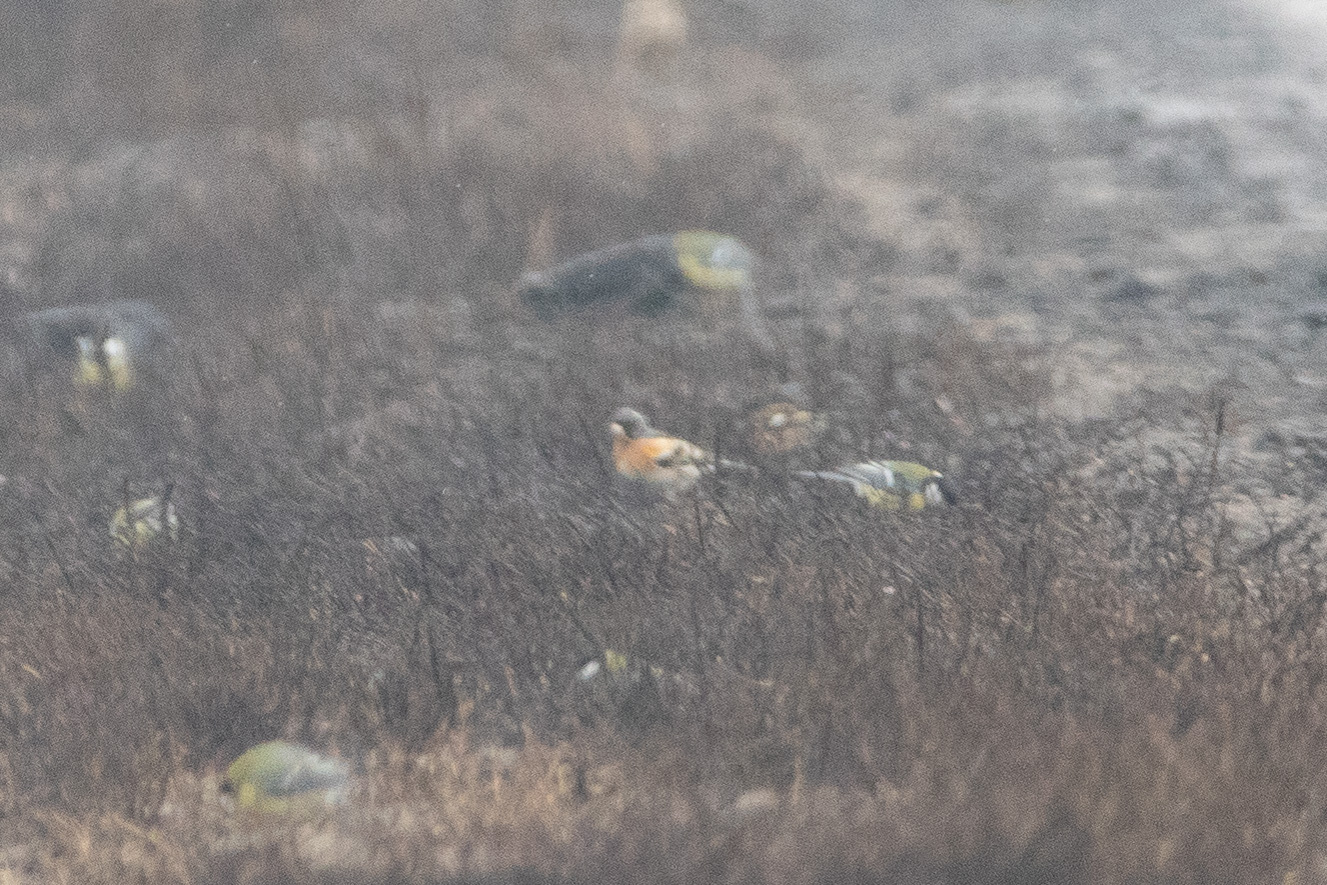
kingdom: Animalia
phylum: Chordata
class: Aves
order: Passeriformes
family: Fringillidae
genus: Fringilla
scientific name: Fringilla montifringilla
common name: Brambling
